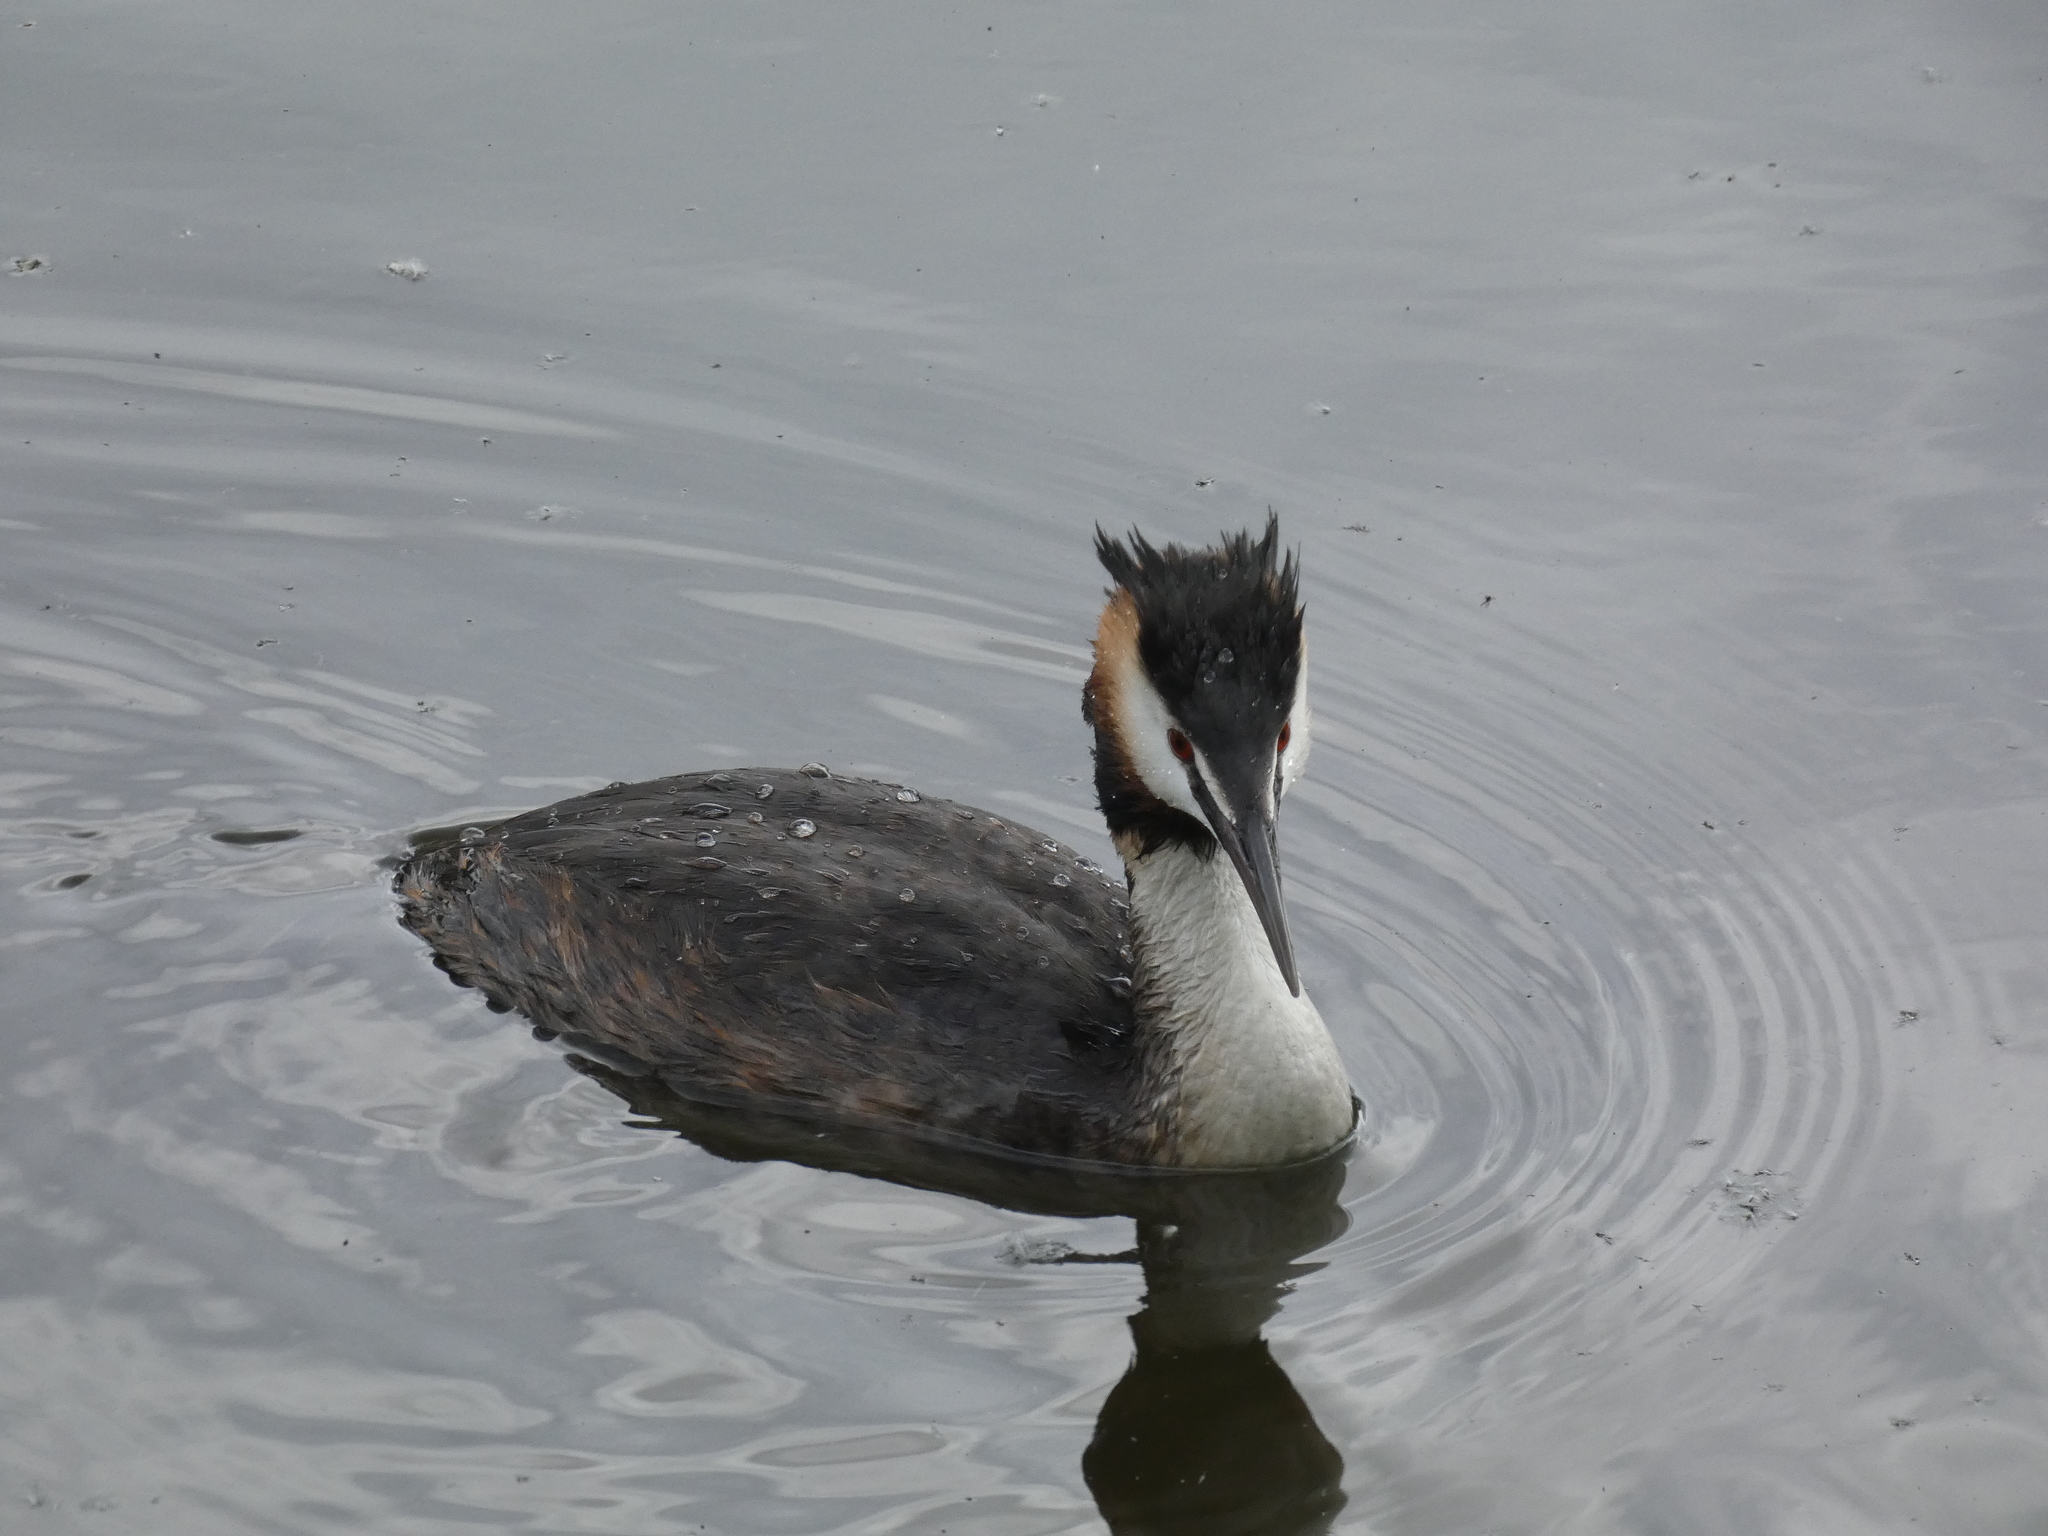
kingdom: Animalia
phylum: Chordata
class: Aves
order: Podicipediformes
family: Podicipedidae
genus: Podiceps
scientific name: Podiceps cristatus
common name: Great crested grebe
